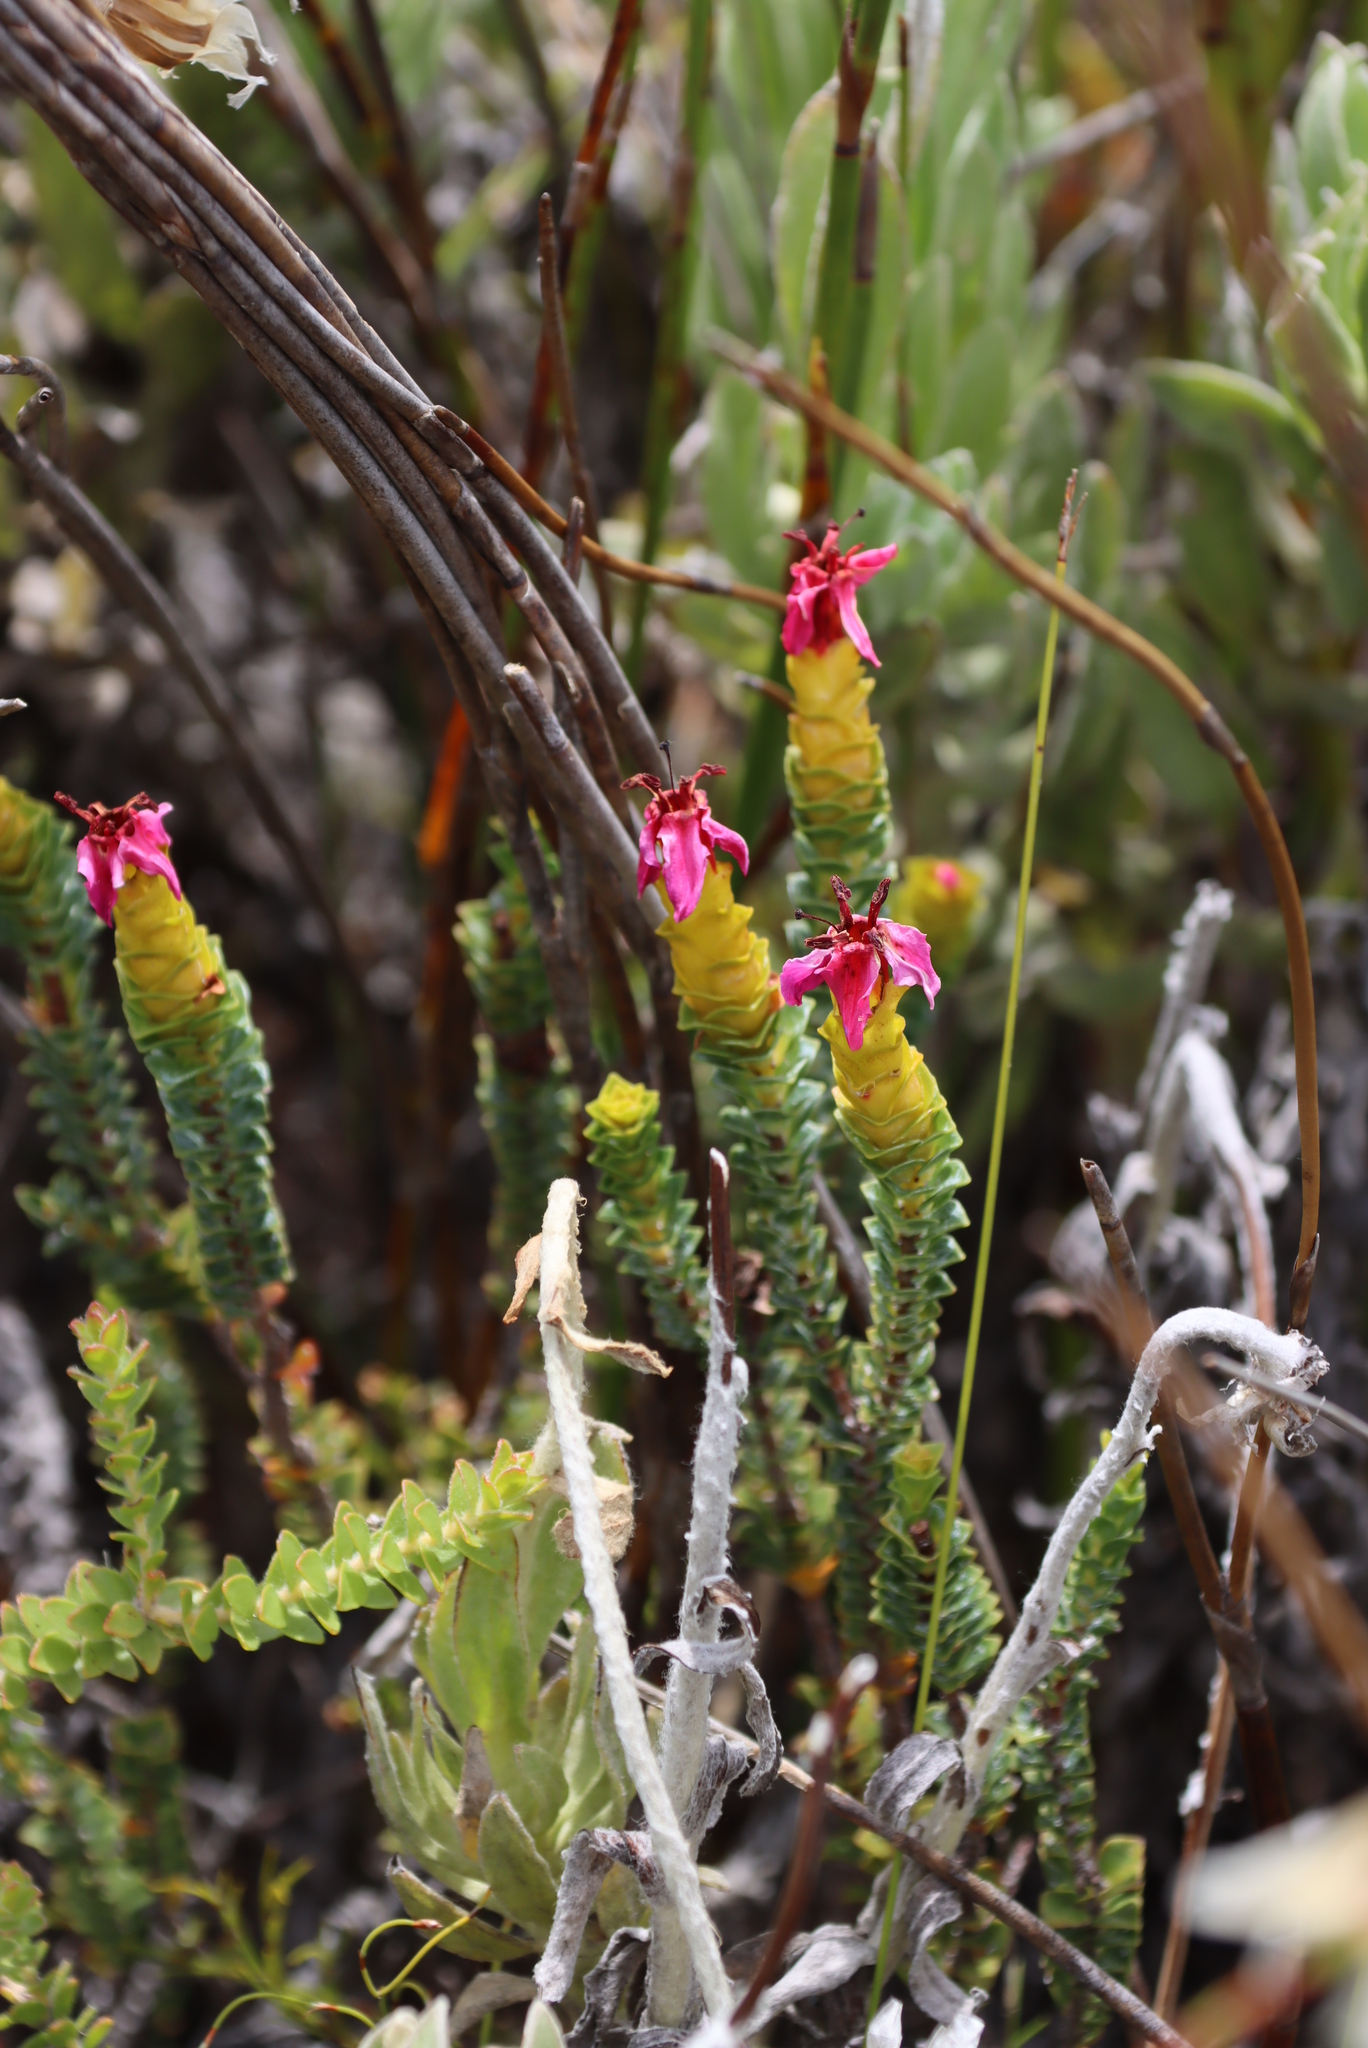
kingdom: Plantae
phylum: Tracheophyta
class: Magnoliopsida
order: Myrtales
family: Penaeaceae
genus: Saltera
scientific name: Saltera sarcocolla
